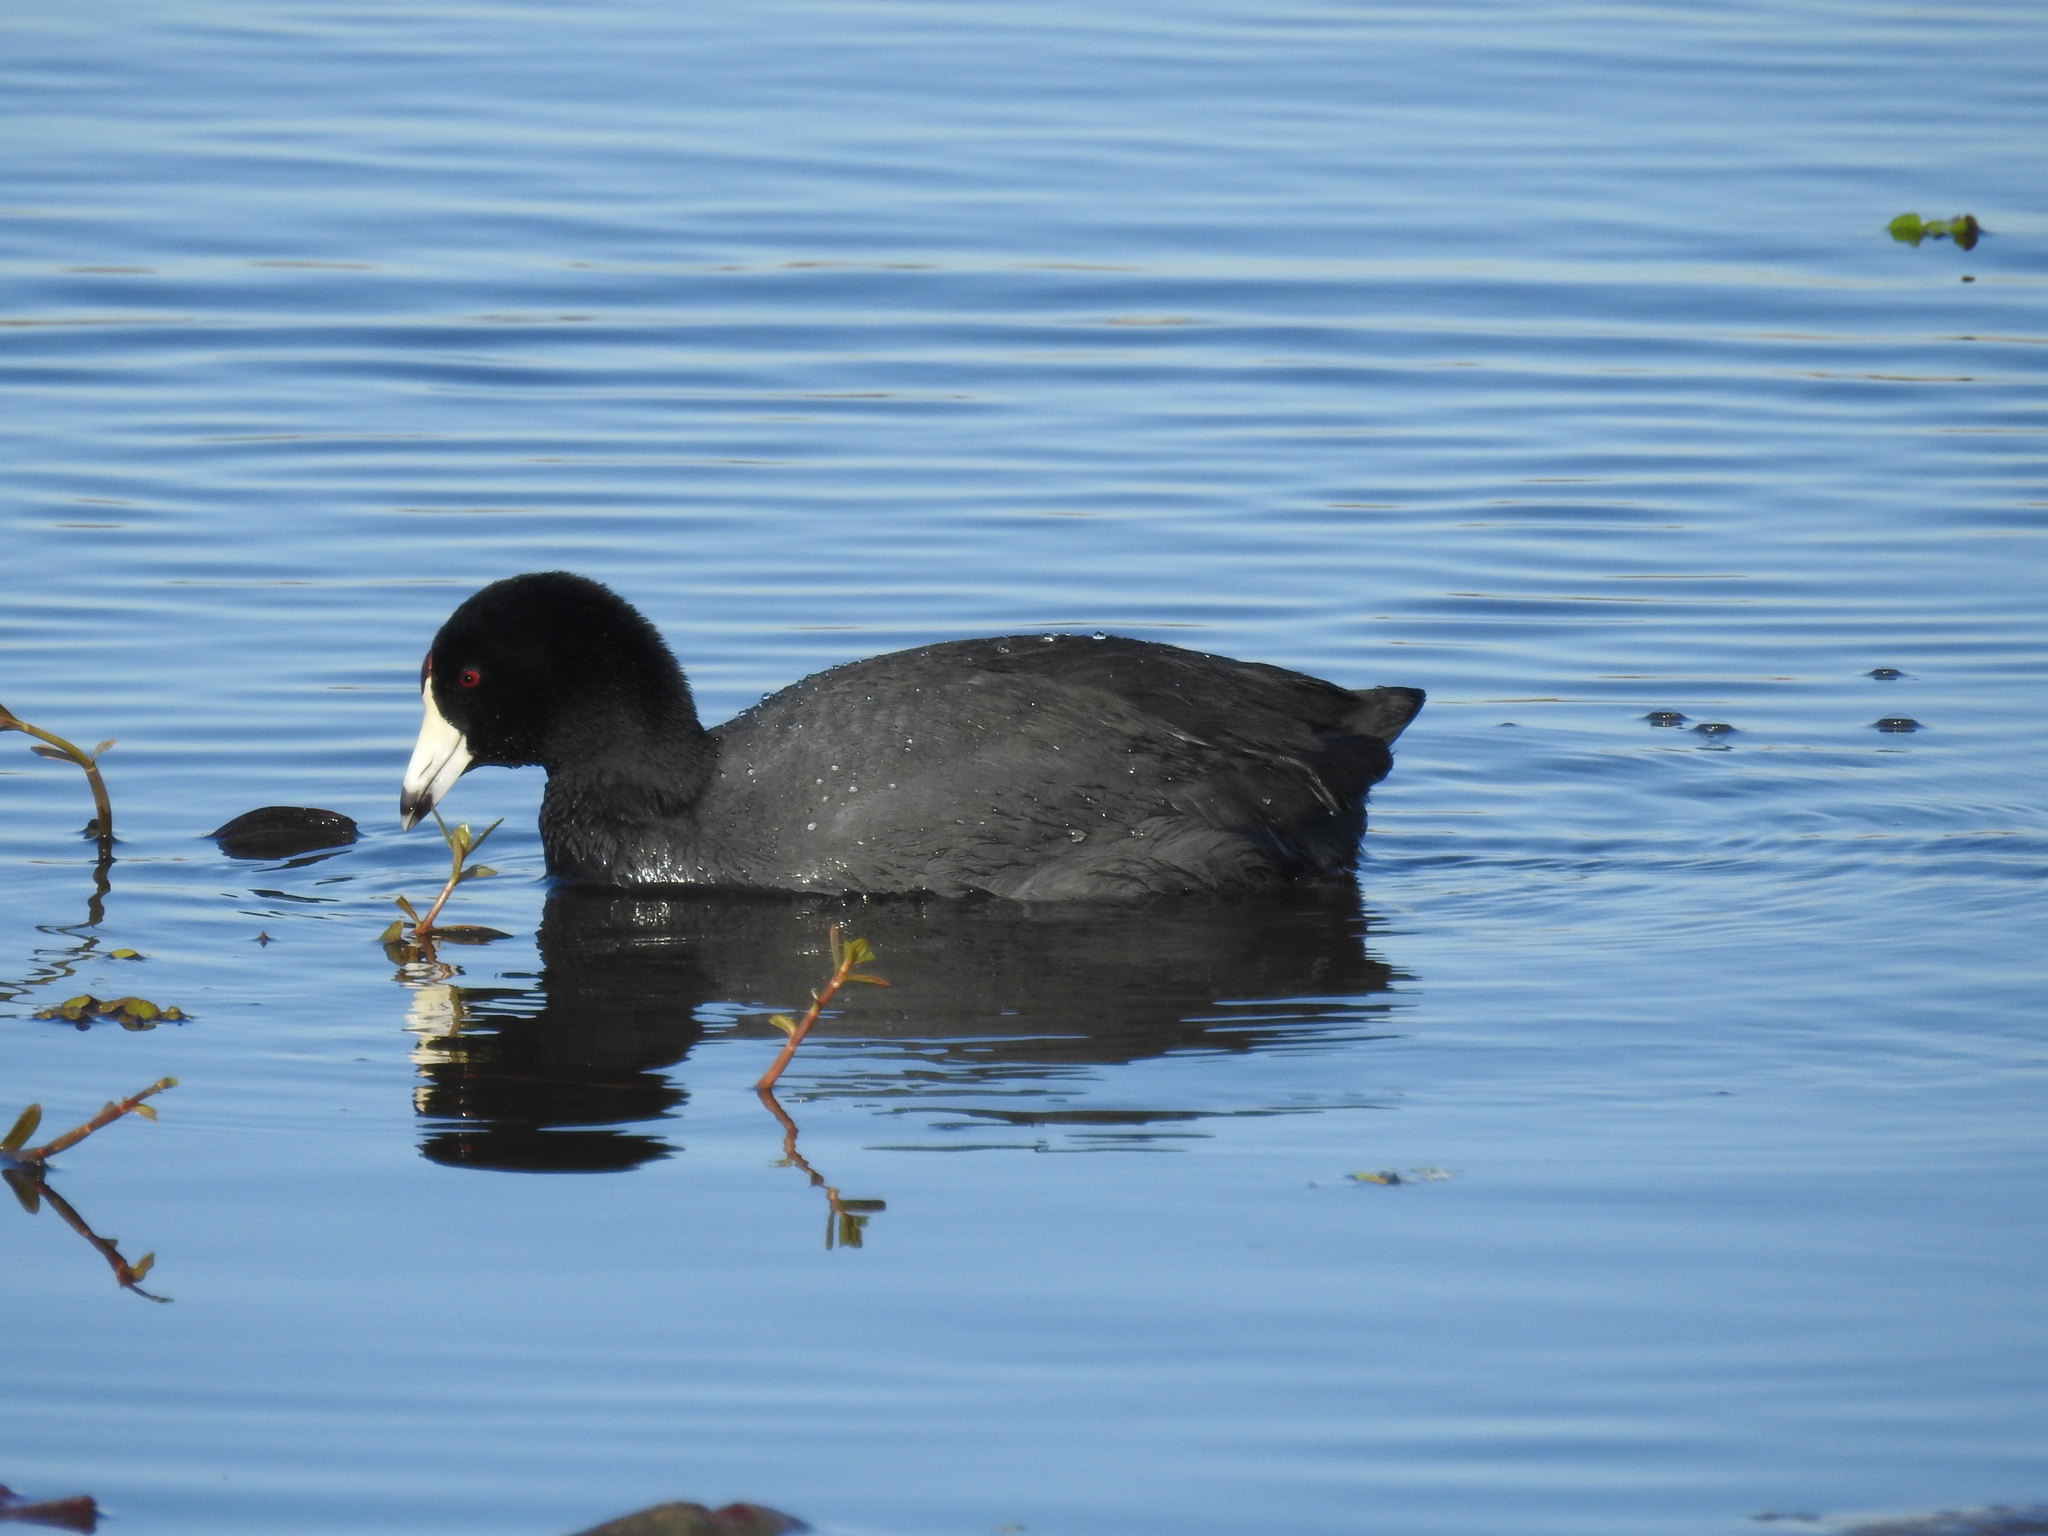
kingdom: Animalia
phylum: Chordata
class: Aves
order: Gruiformes
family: Rallidae
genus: Fulica
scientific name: Fulica americana
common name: American coot
